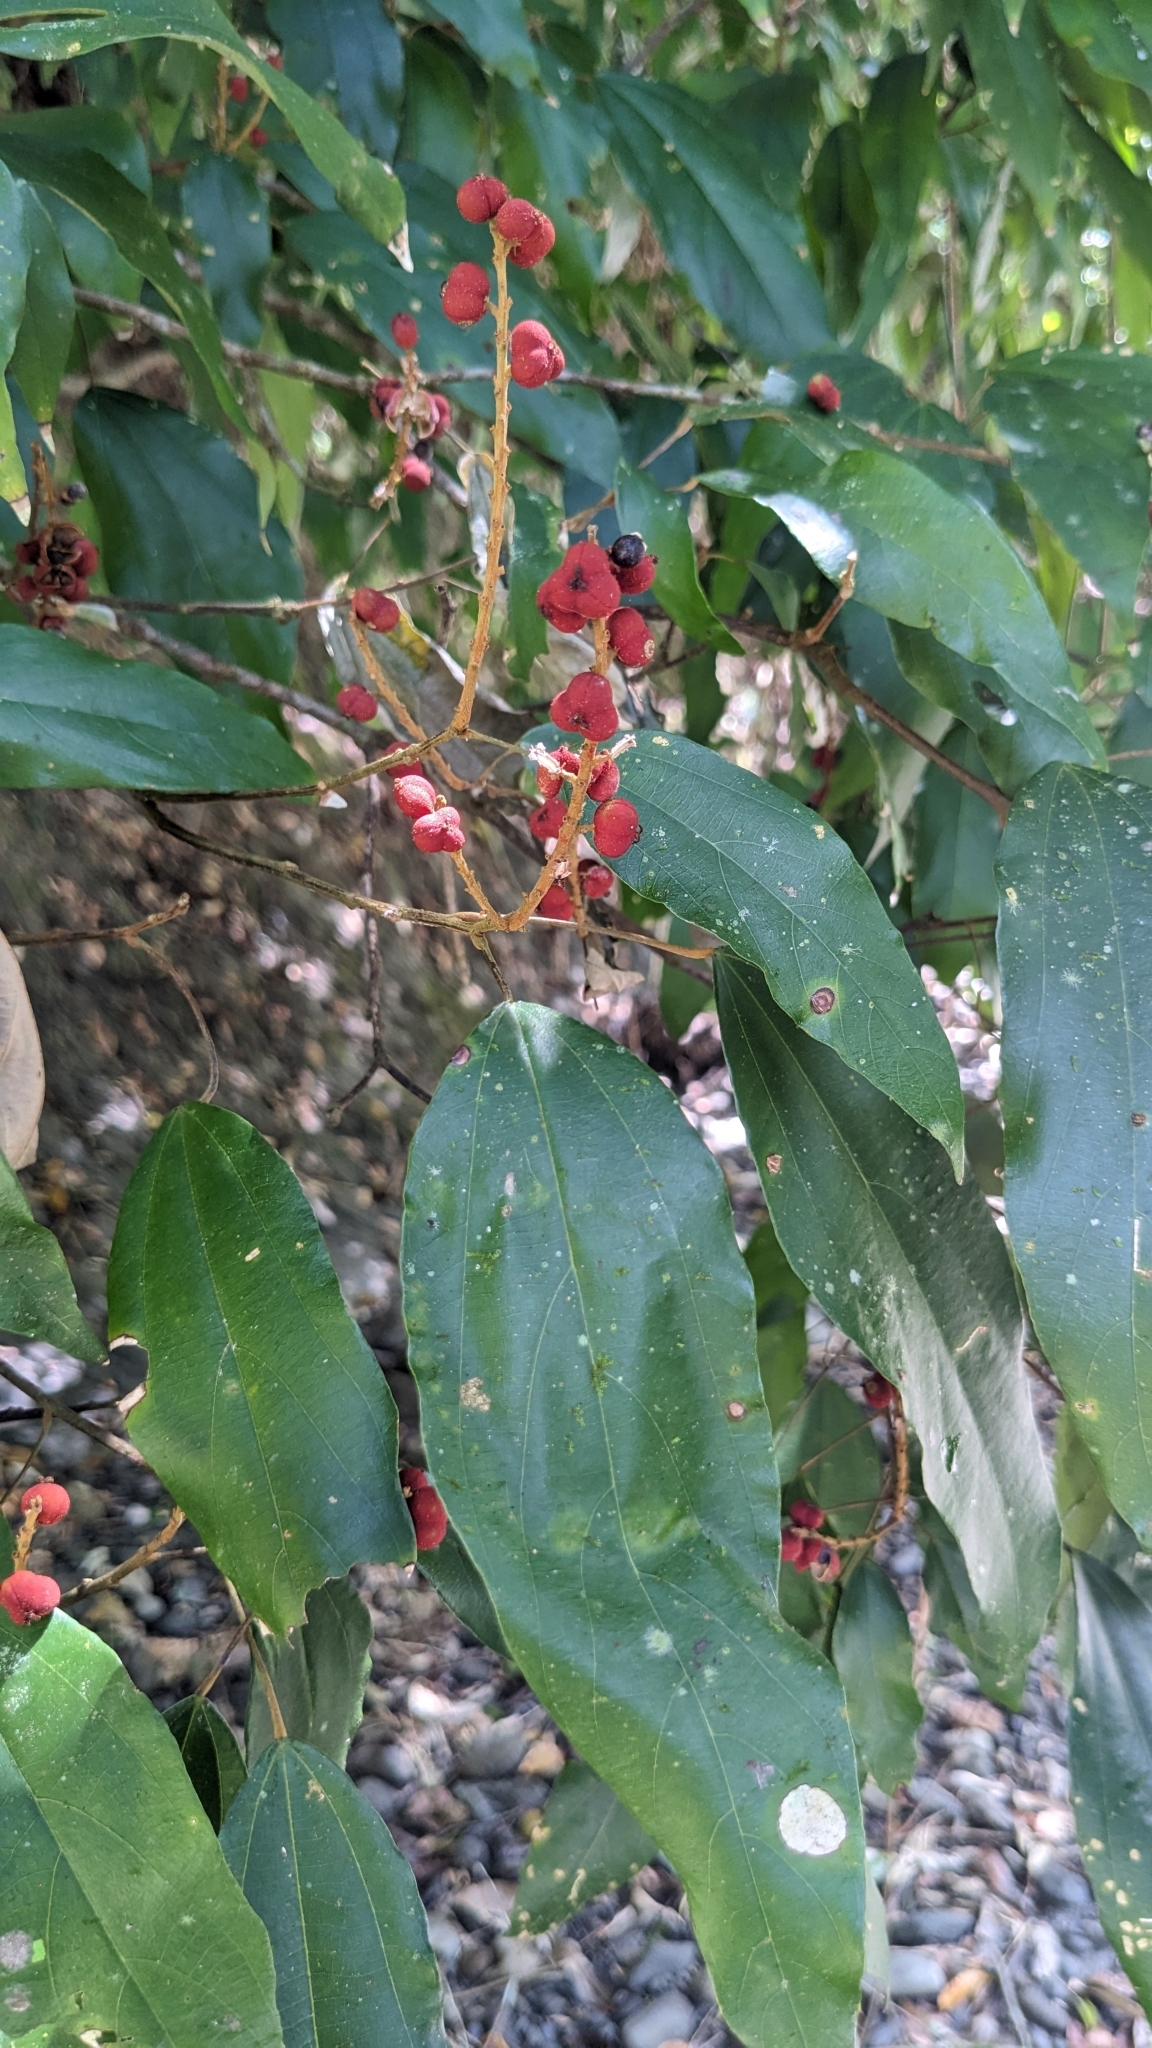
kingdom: Plantae
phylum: Tracheophyta
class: Magnoliopsida
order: Malpighiales
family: Euphorbiaceae
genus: Mallotus
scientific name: Mallotus philippensis
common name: Kamala tree
